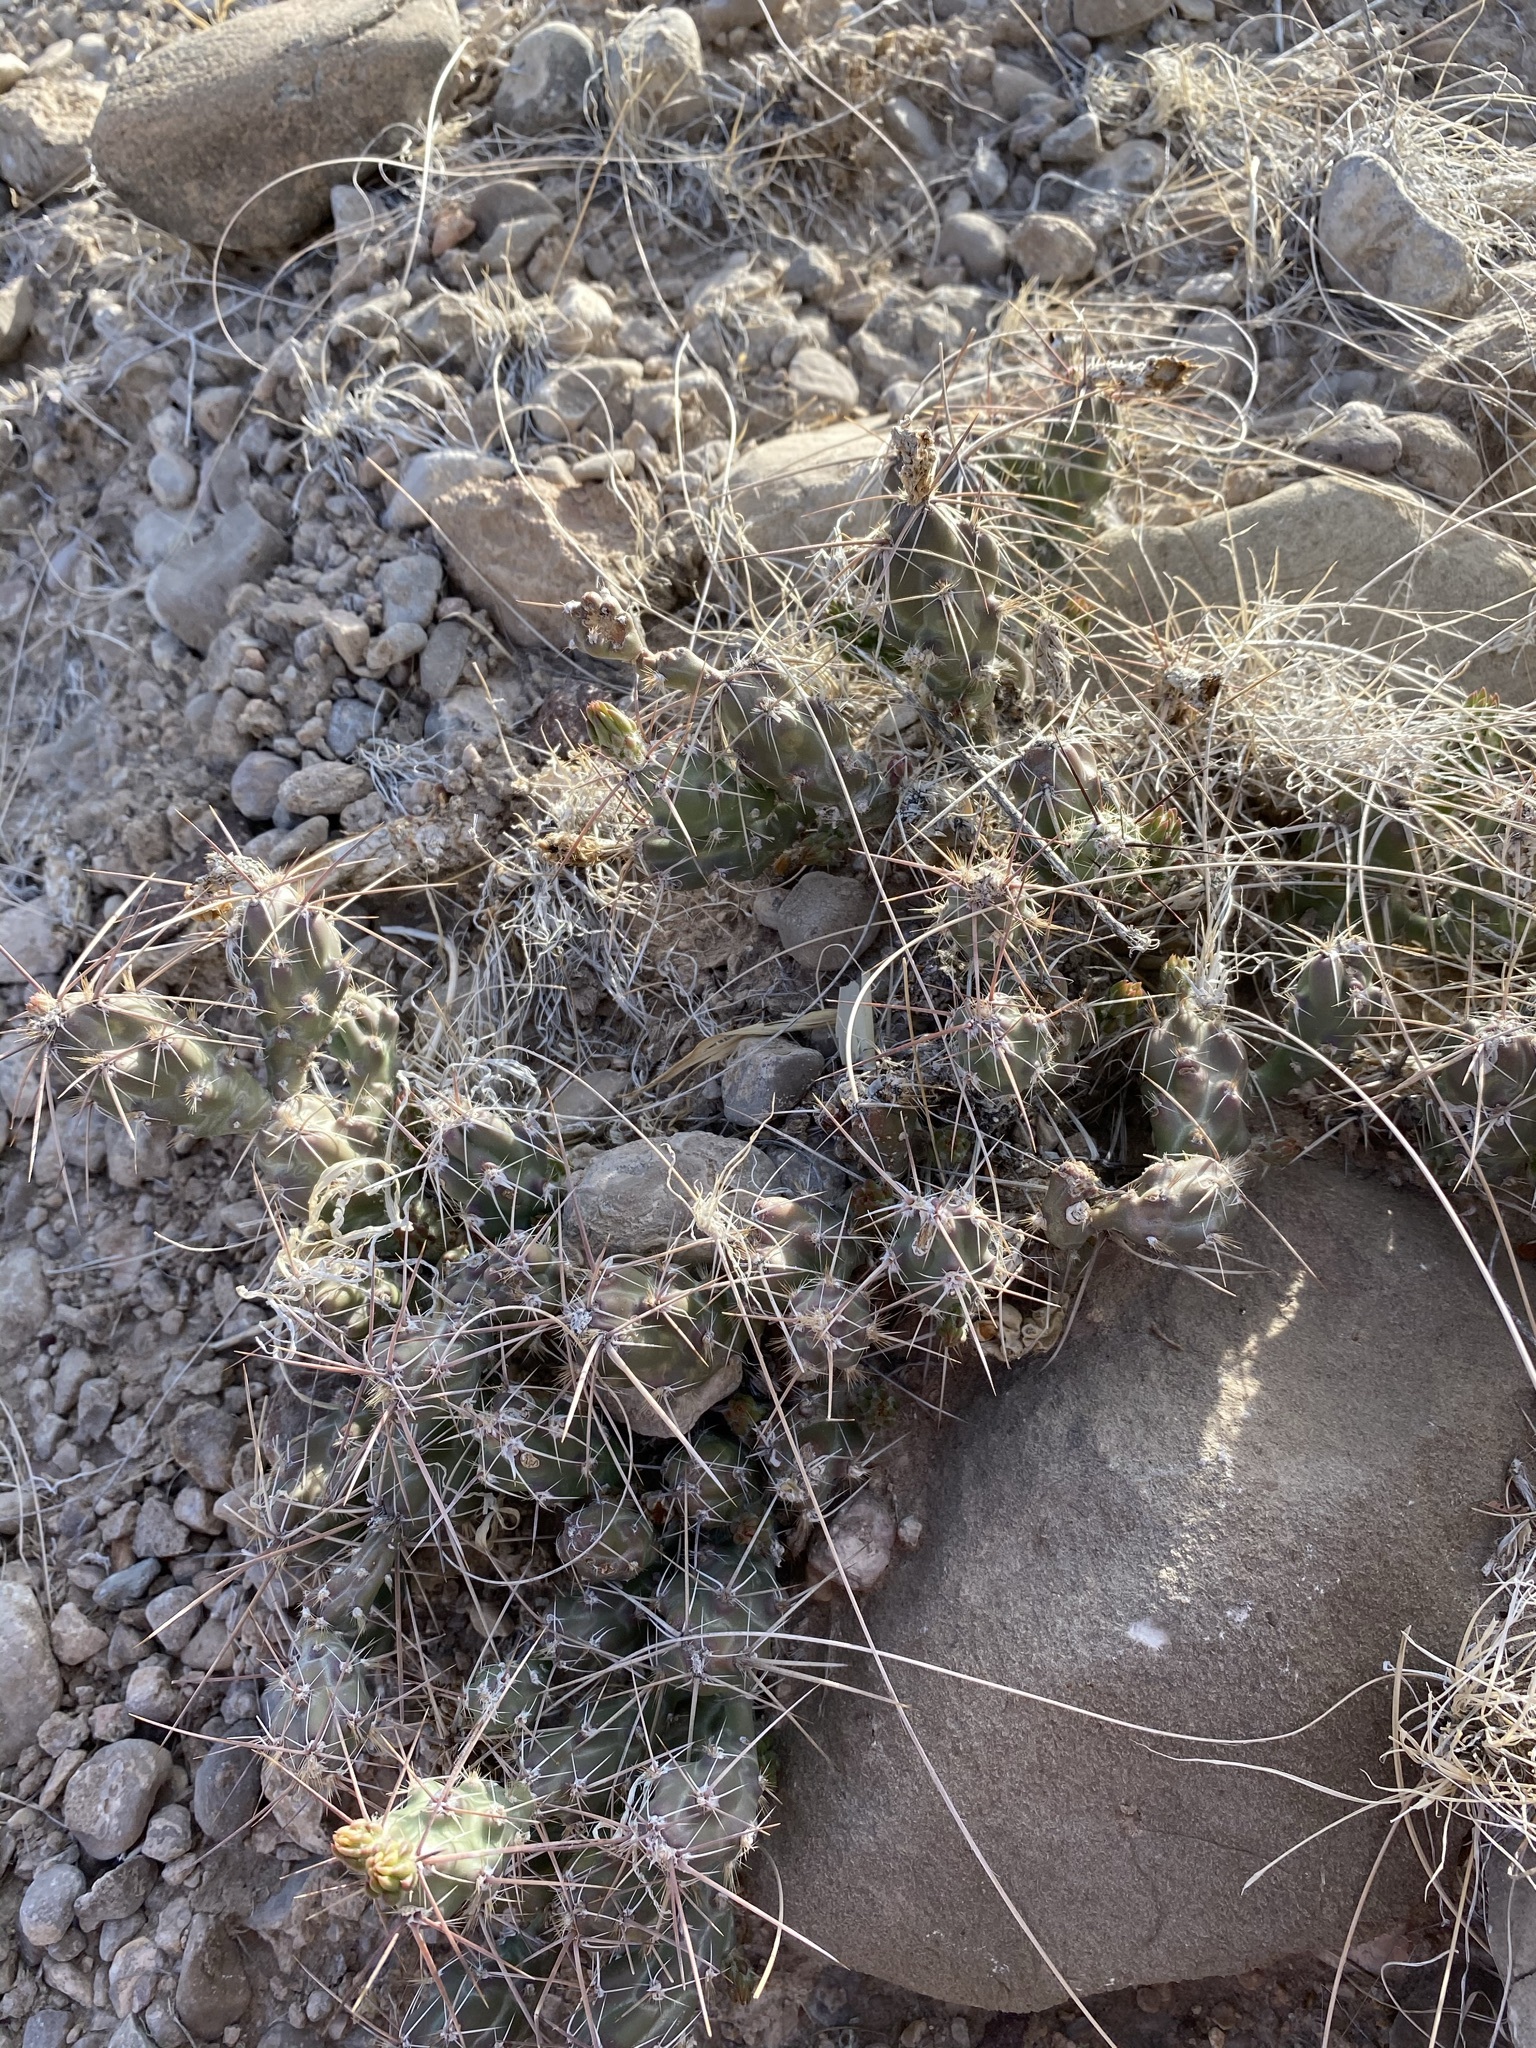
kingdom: Plantae
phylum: Tracheophyta
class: Magnoliopsida
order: Caryophyllales
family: Cactaceae
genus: Grusonia
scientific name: Grusonia aggeria
